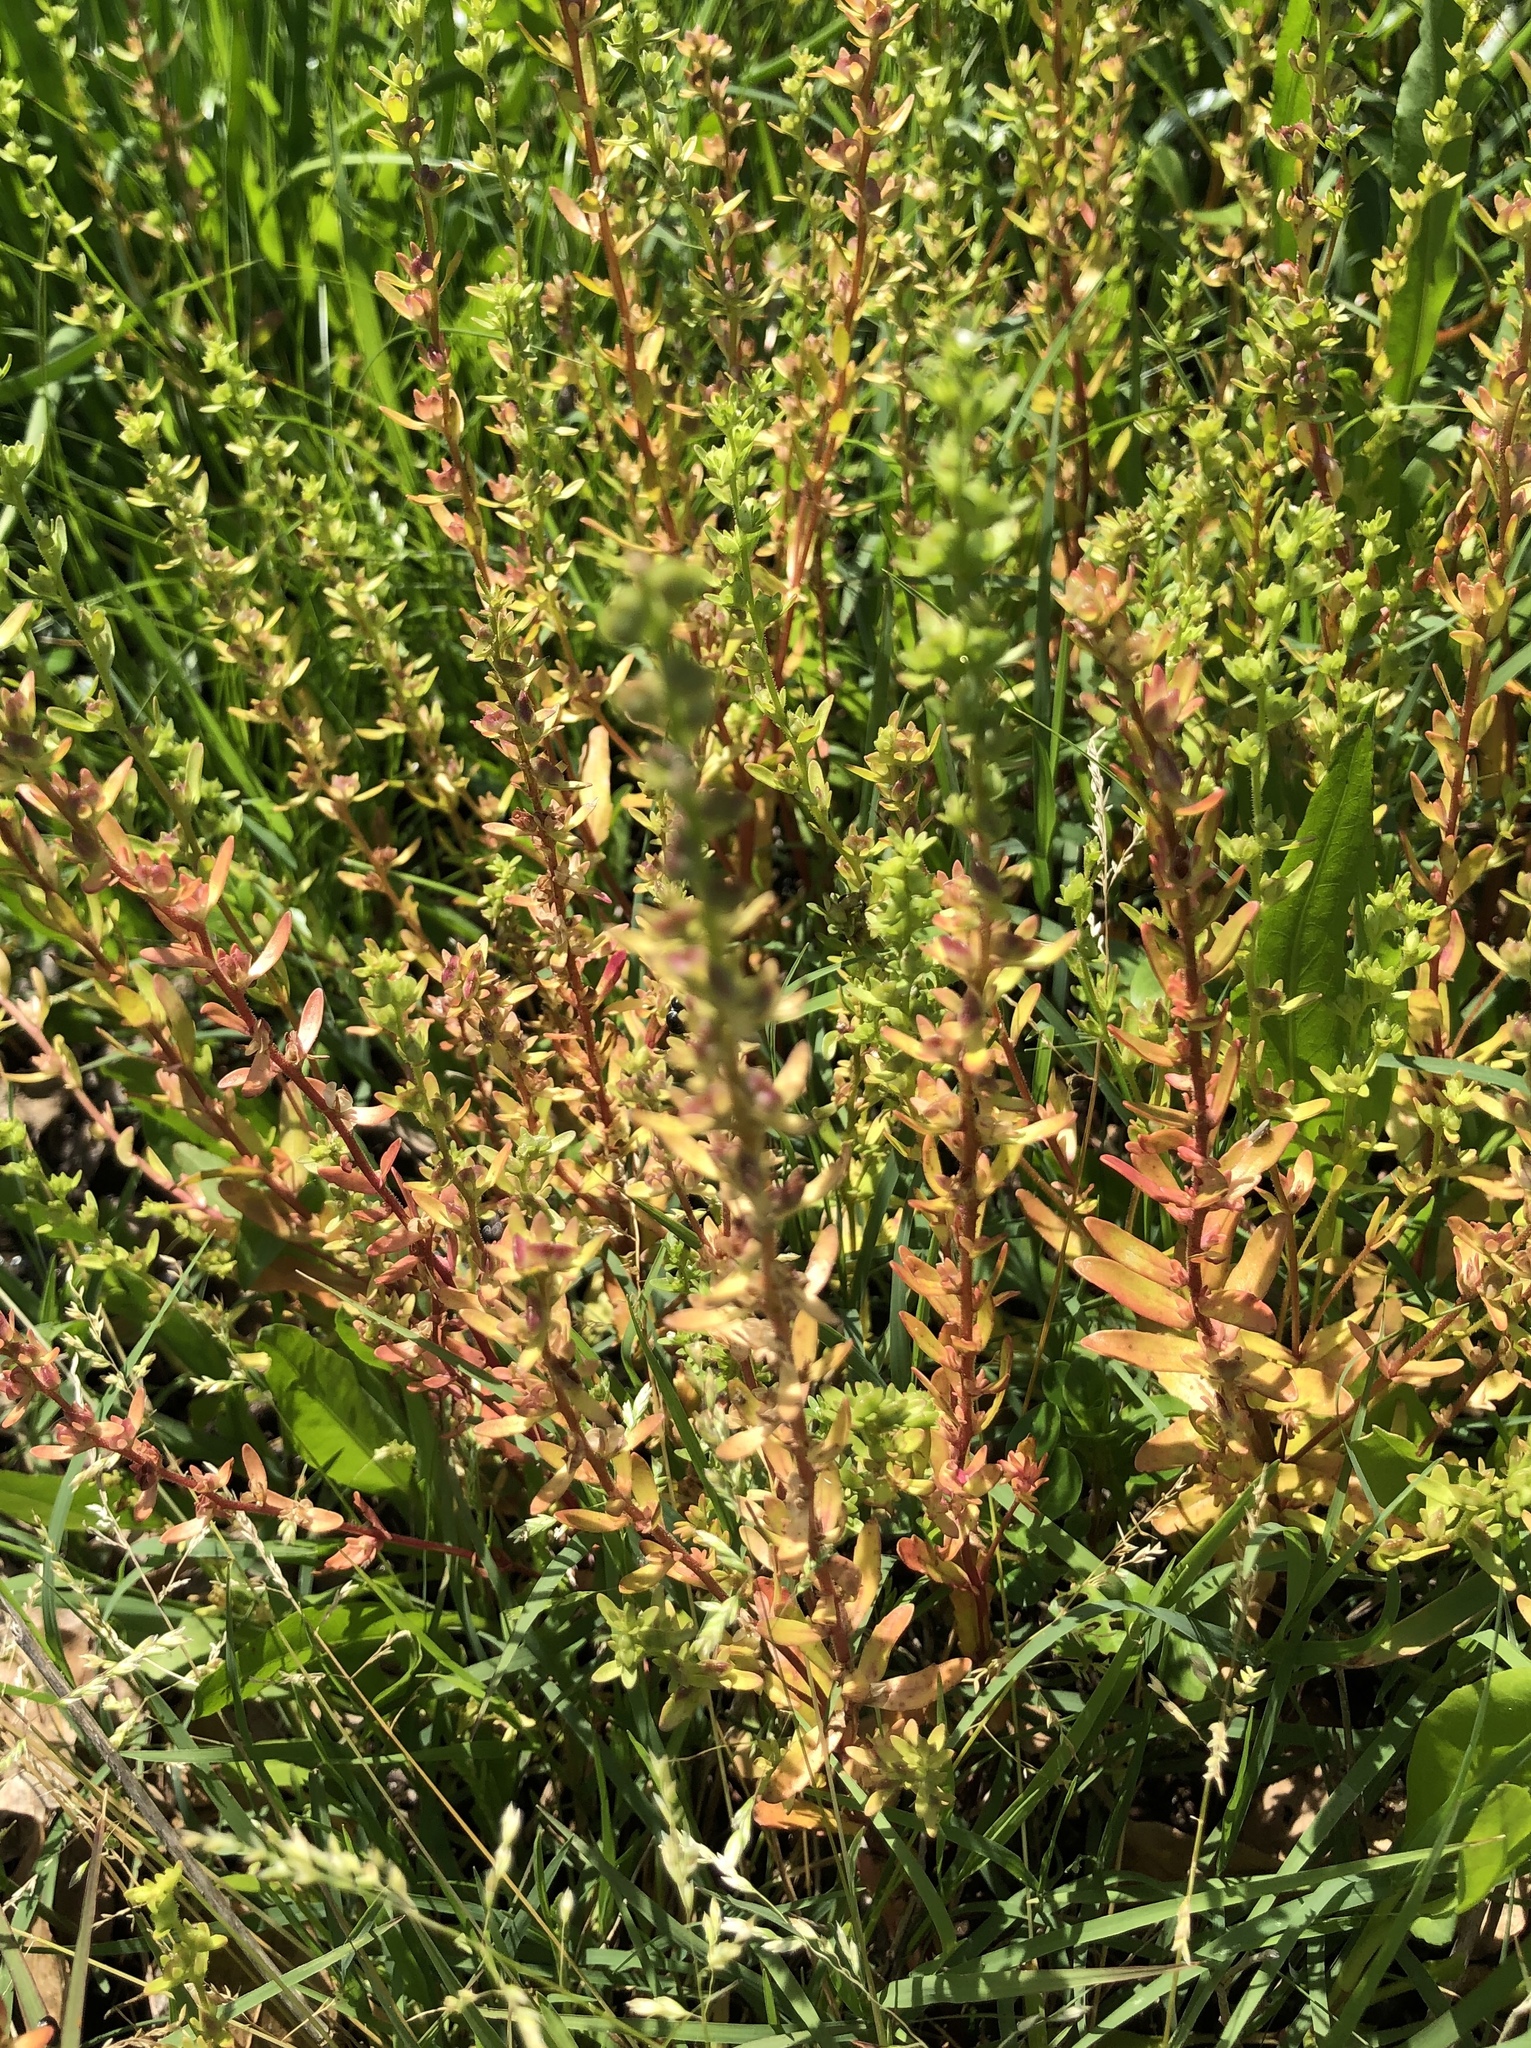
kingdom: Plantae
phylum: Tracheophyta
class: Magnoliopsida
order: Lamiales
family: Plantaginaceae
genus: Veronica
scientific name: Veronica peregrina
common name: Neckweed
